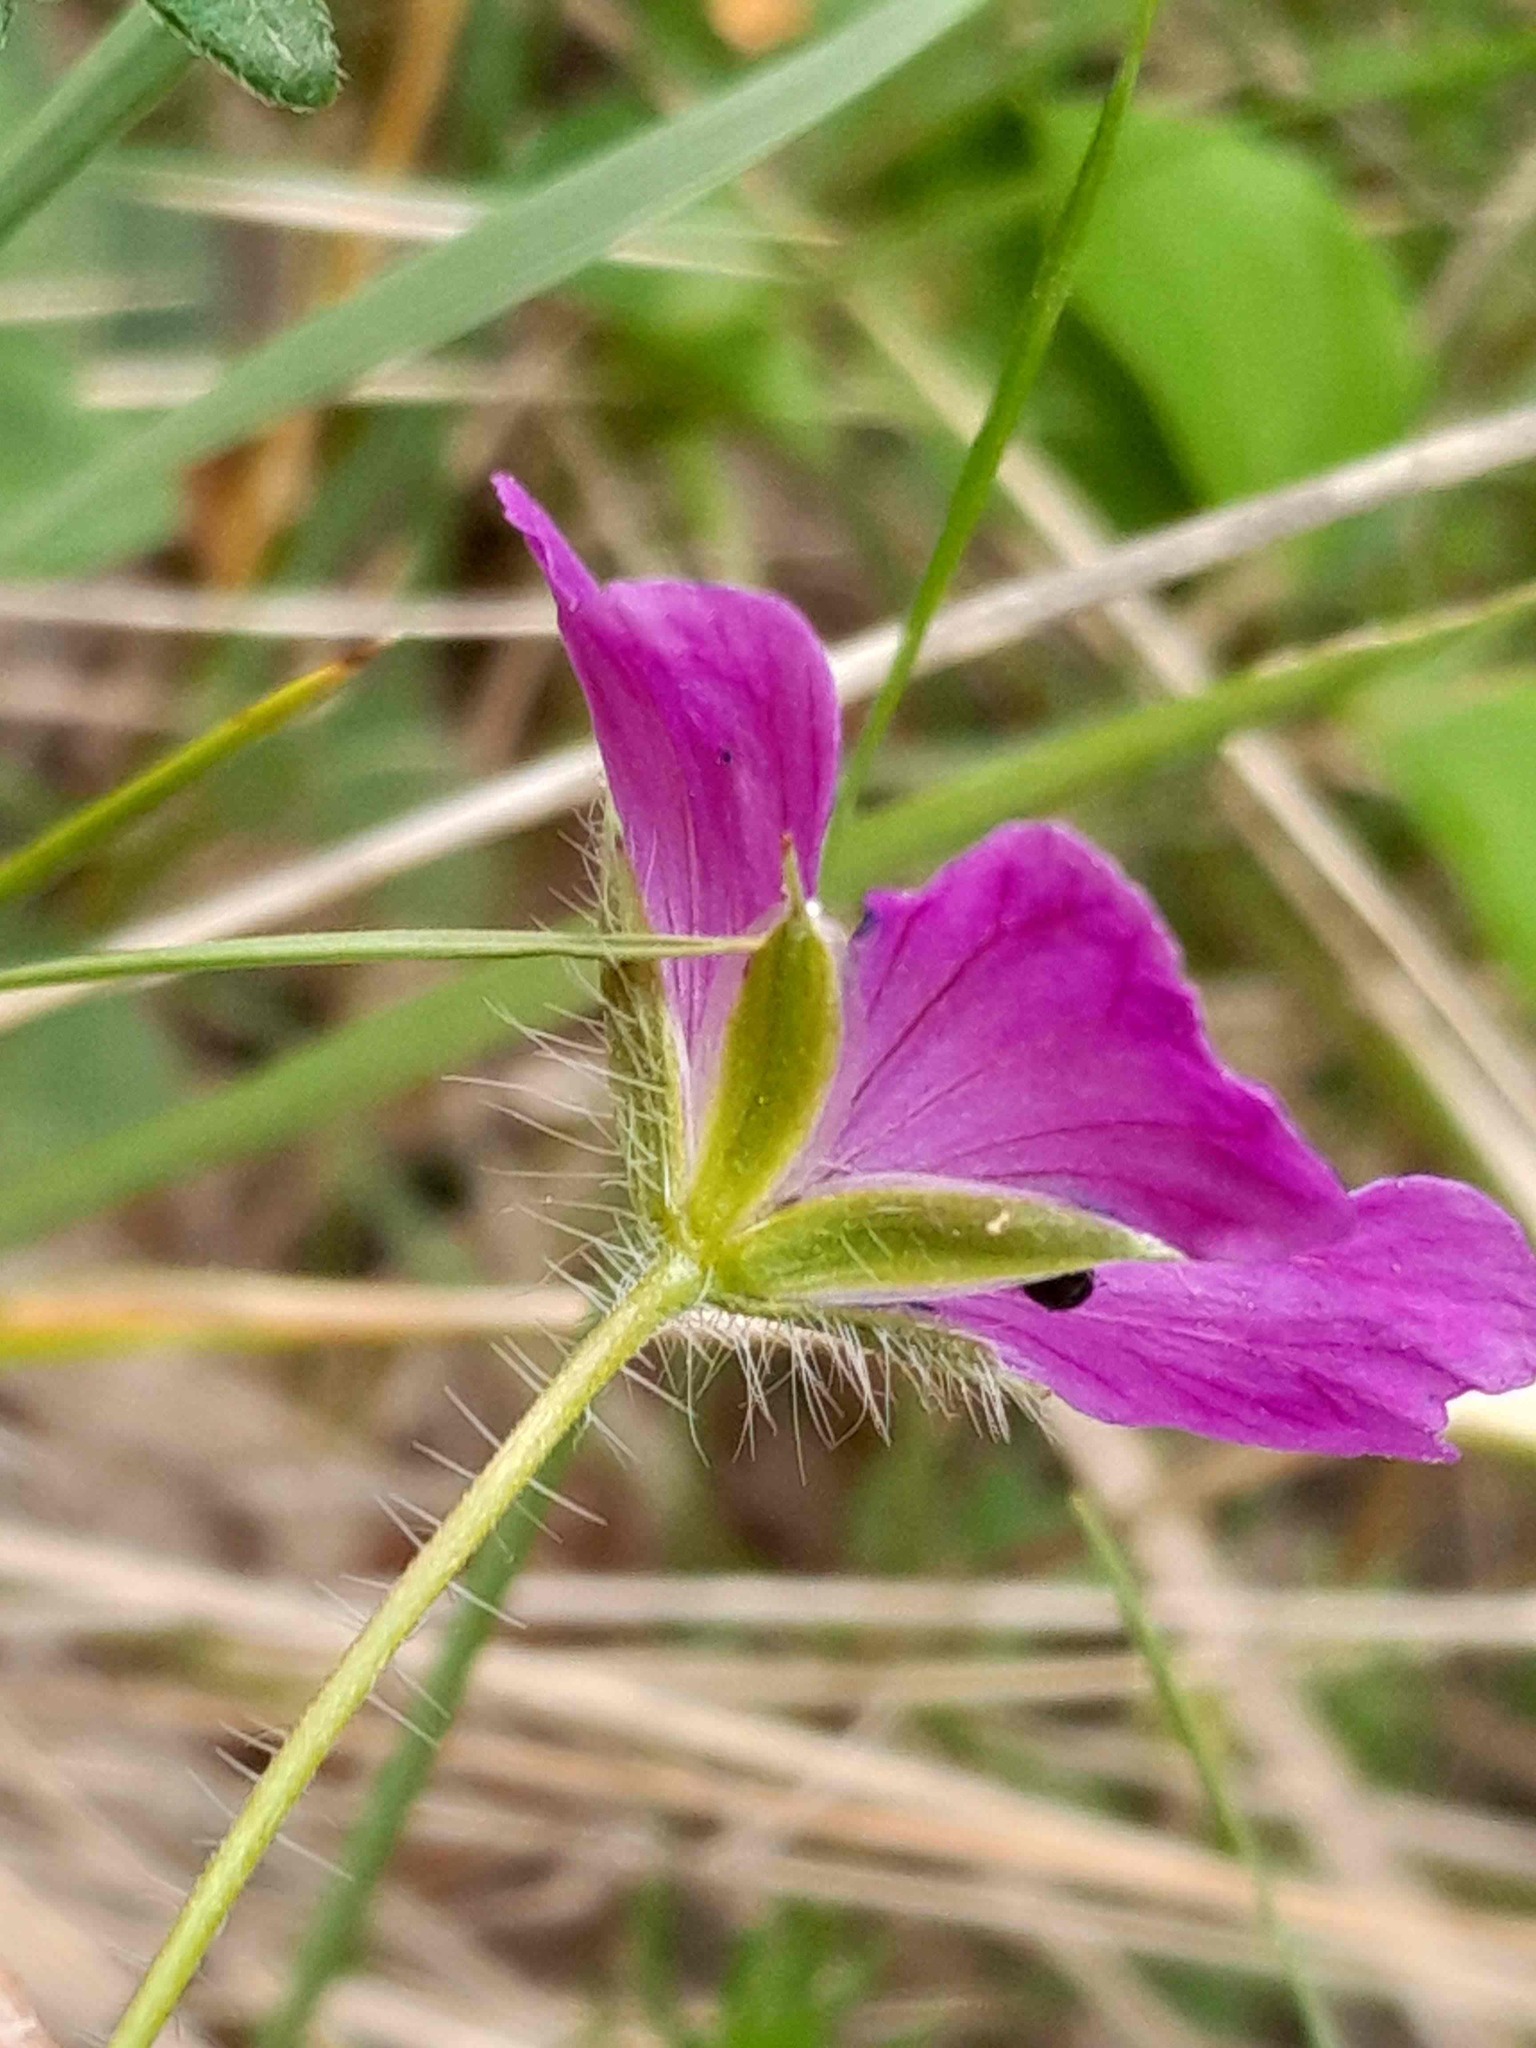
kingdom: Plantae
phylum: Tracheophyta
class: Magnoliopsida
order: Geraniales
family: Geraniaceae
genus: Geranium
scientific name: Geranium sanguineum
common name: Bloody crane's-bill
